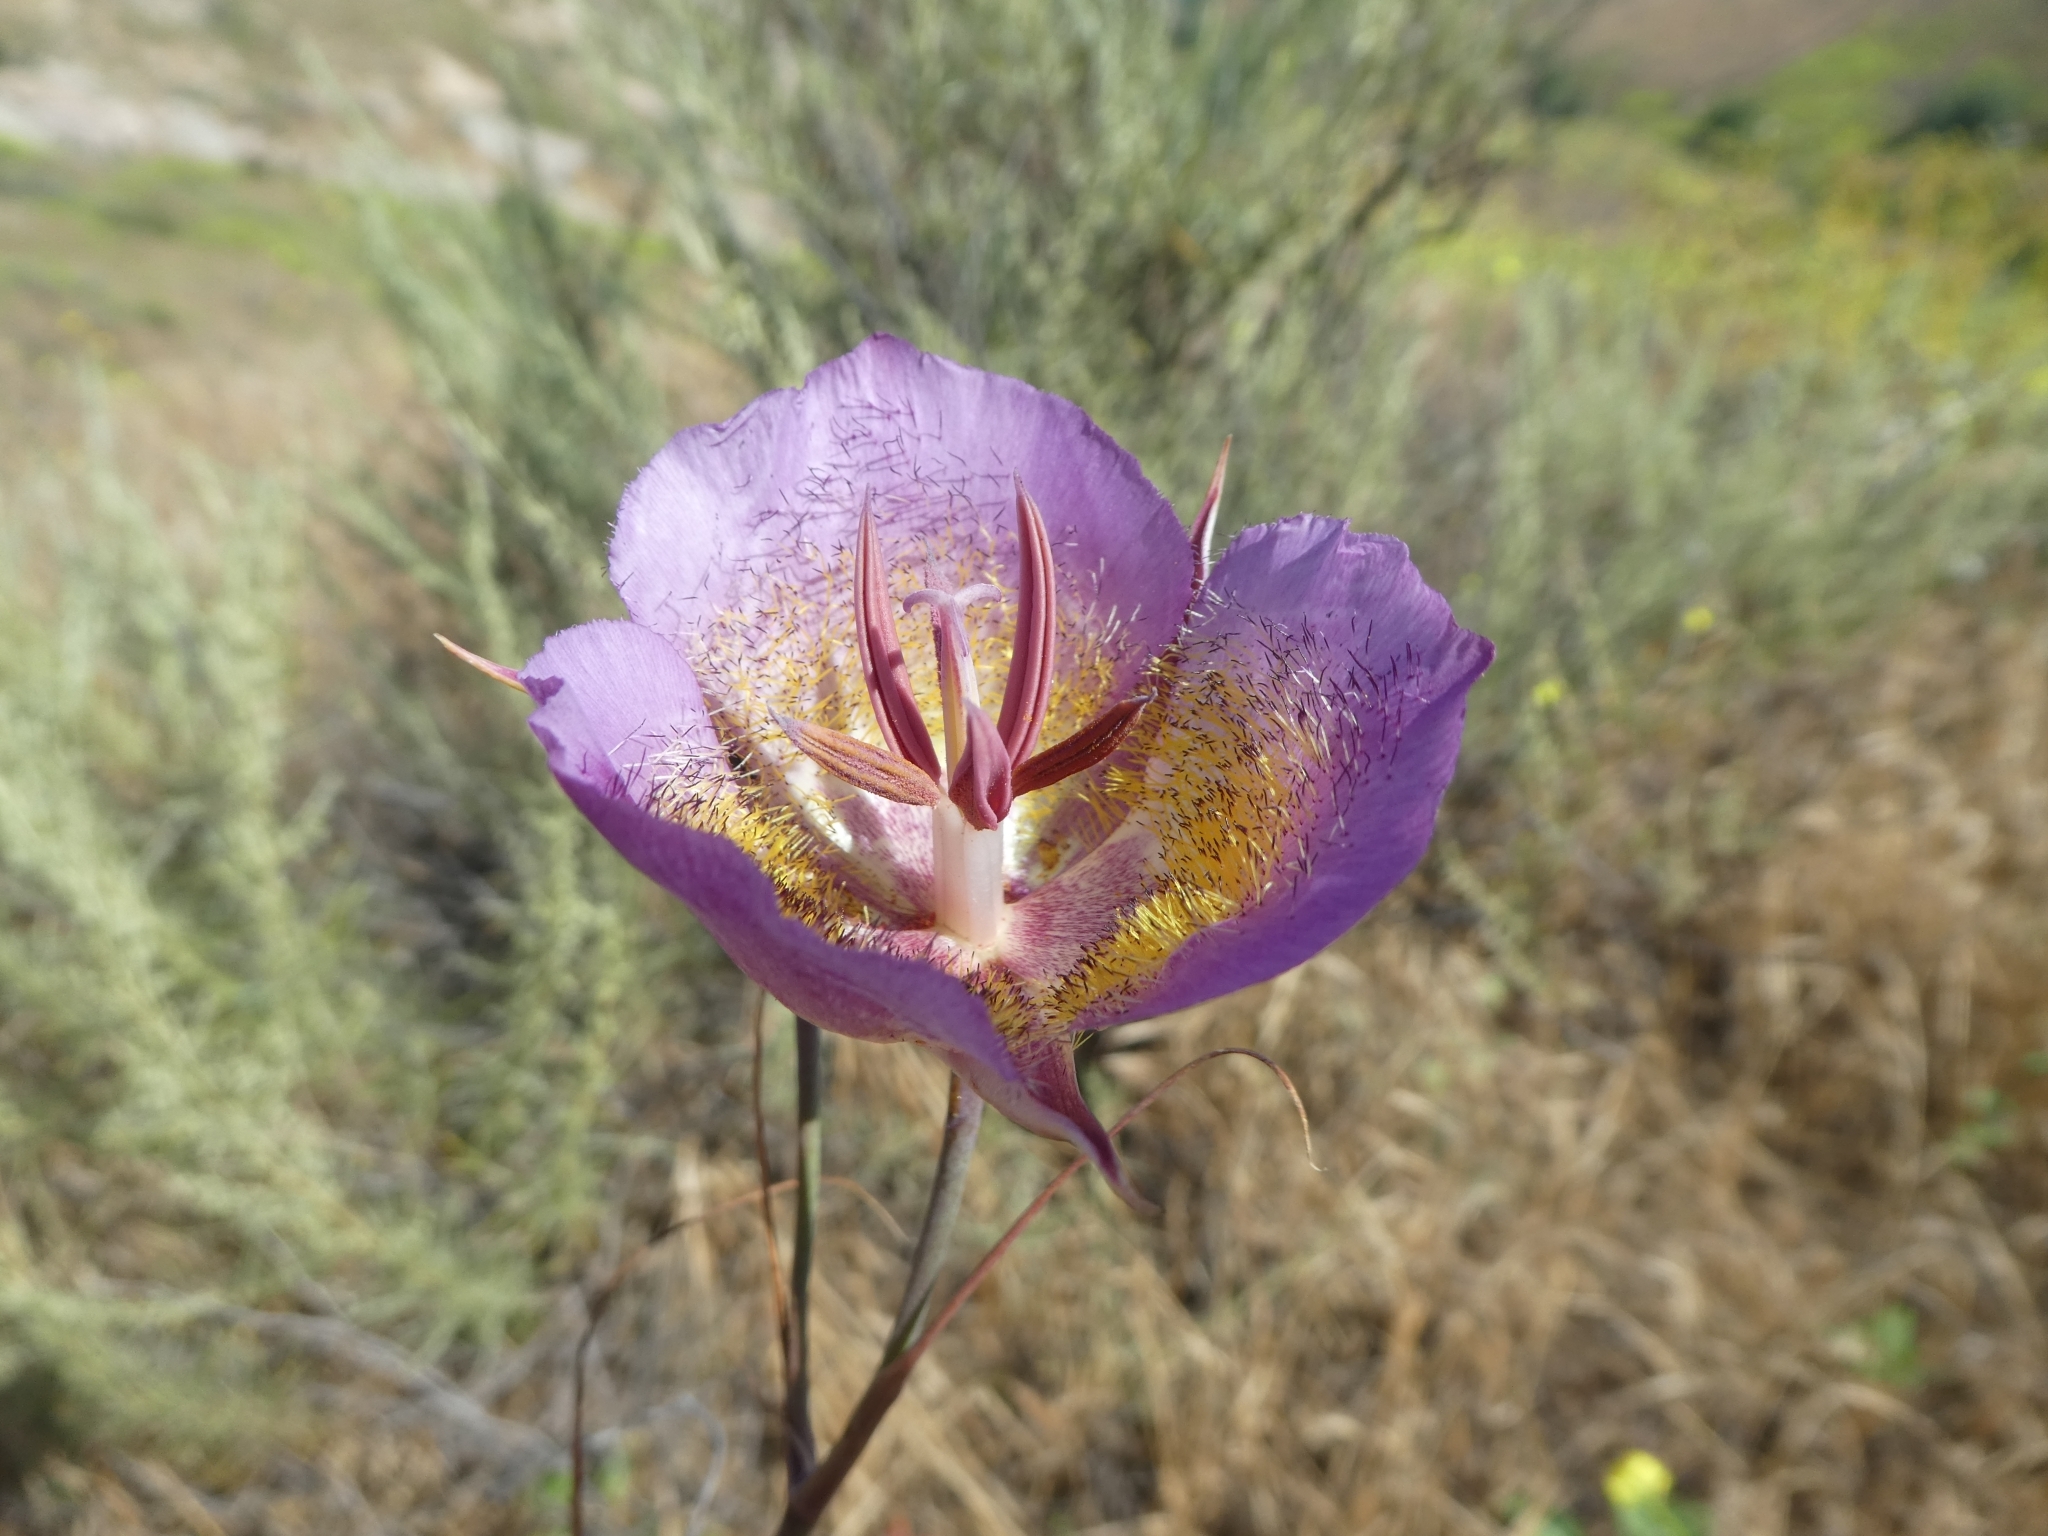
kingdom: Plantae
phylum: Tracheophyta
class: Liliopsida
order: Liliales
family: Liliaceae
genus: Calochortus
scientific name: Calochortus plummerae
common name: Plummer's mariposa-lily
